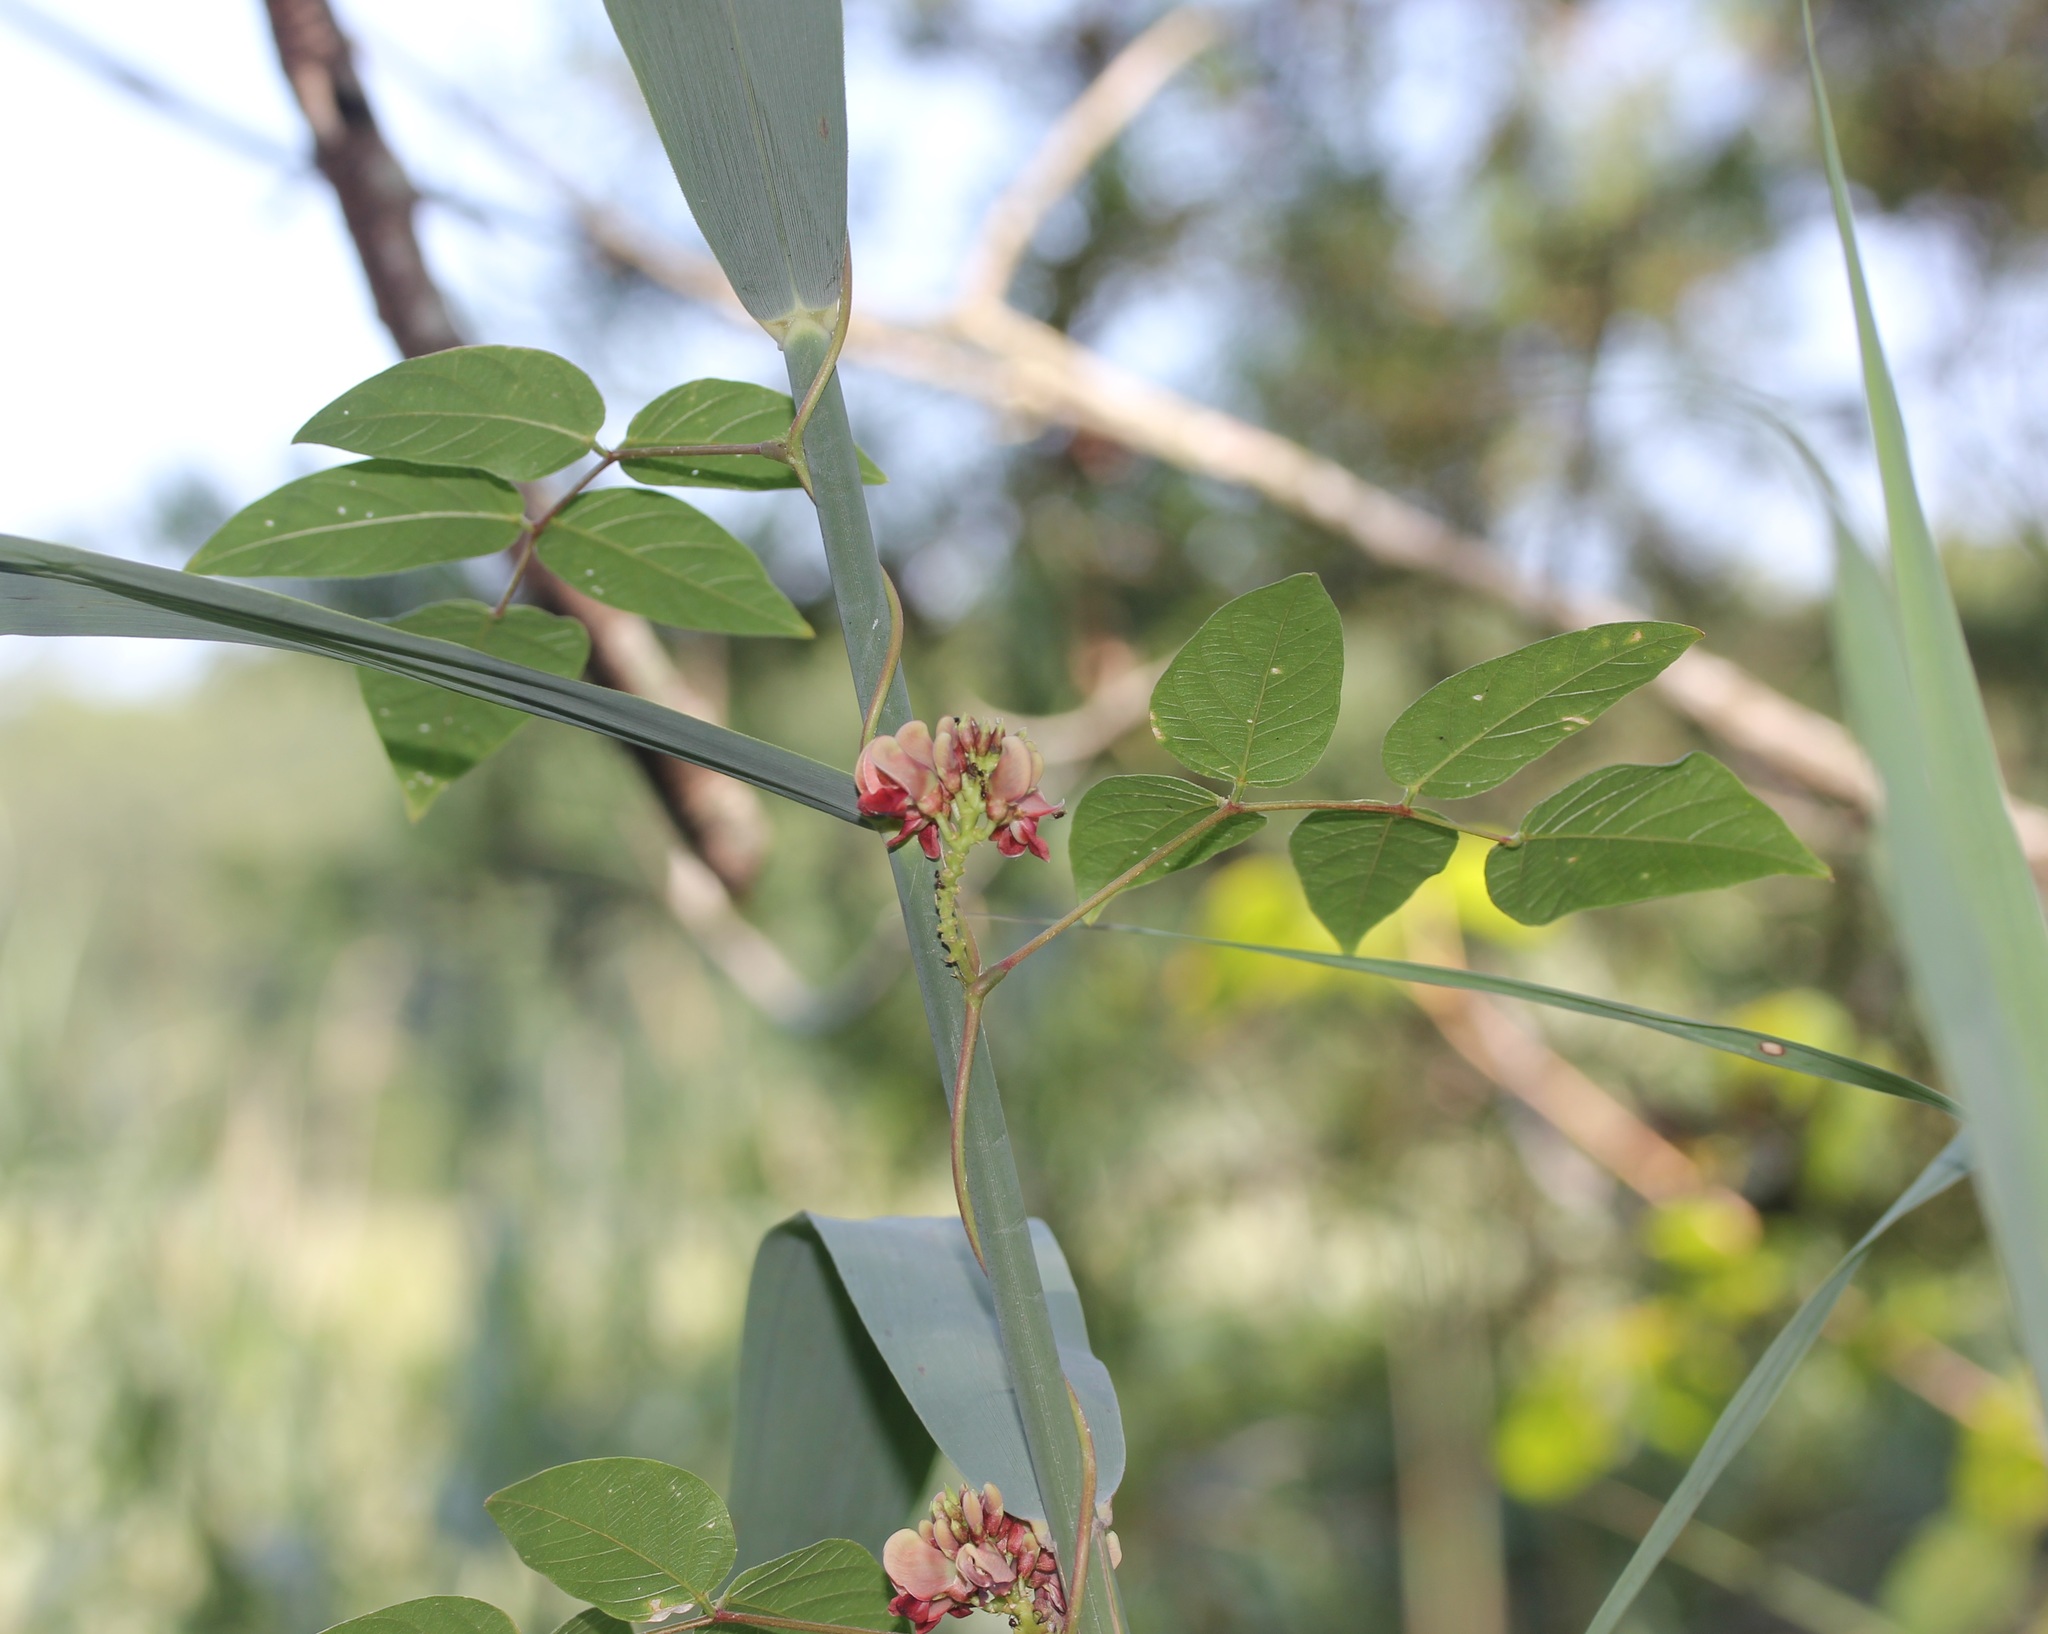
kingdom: Plantae
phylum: Tracheophyta
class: Magnoliopsida
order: Fabales
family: Fabaceae
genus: Apios
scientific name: Apios americana
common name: American potato-bean
